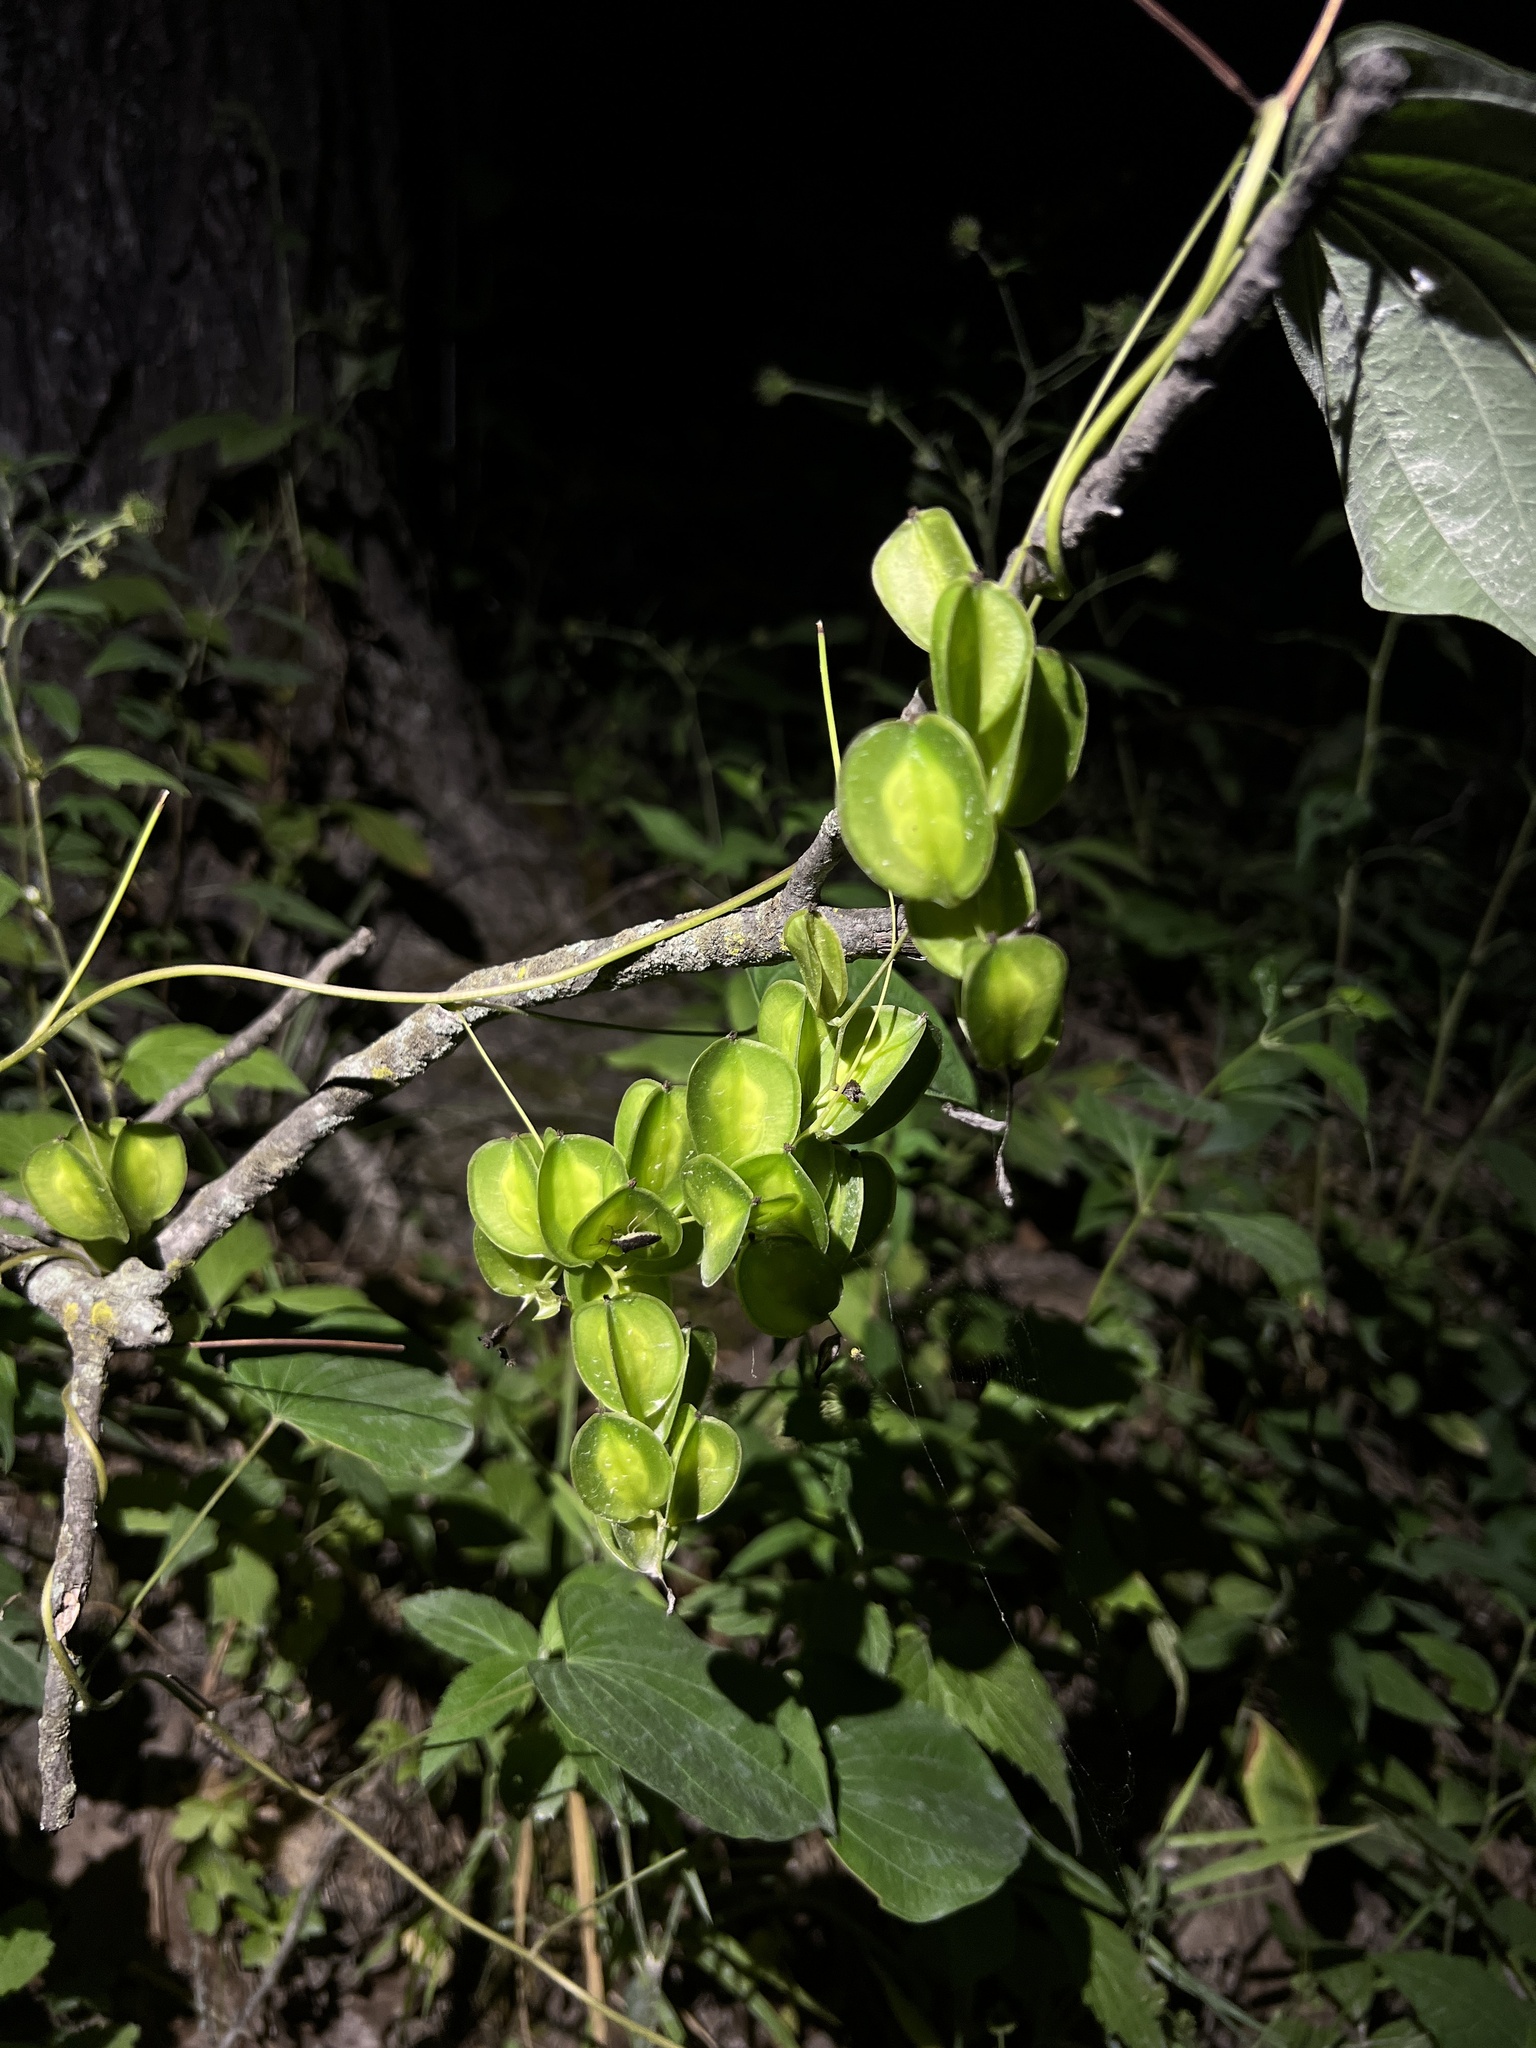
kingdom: Plantae
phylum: Tracheophyta
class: Liliopsida
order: Dioscoreales
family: Dioscoreaceae
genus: Dioscorea
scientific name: Dioscorea villosa
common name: Wild yam
